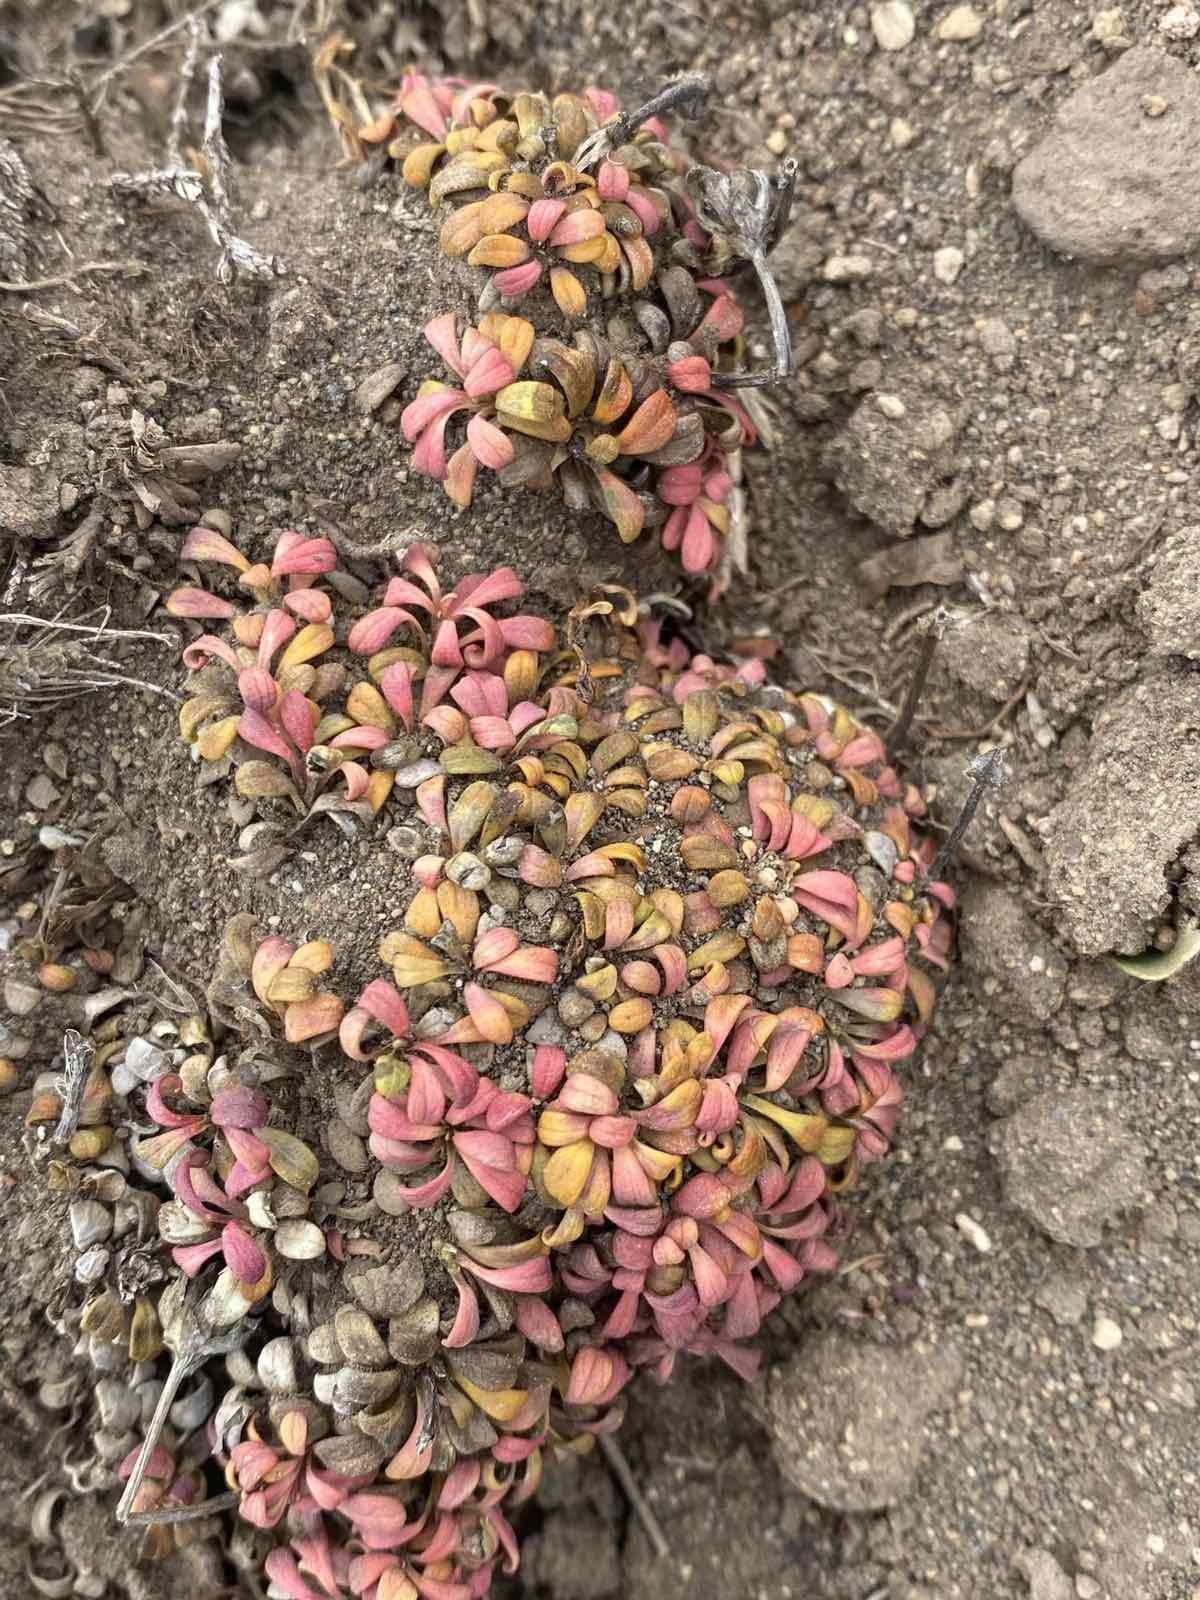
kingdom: Plantae
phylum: Tracheophyta
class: Magnoliopsida
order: Ericales
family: Diapensiaceae
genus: Diapensia
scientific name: Diapensia obovata
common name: Alaska diapensia
